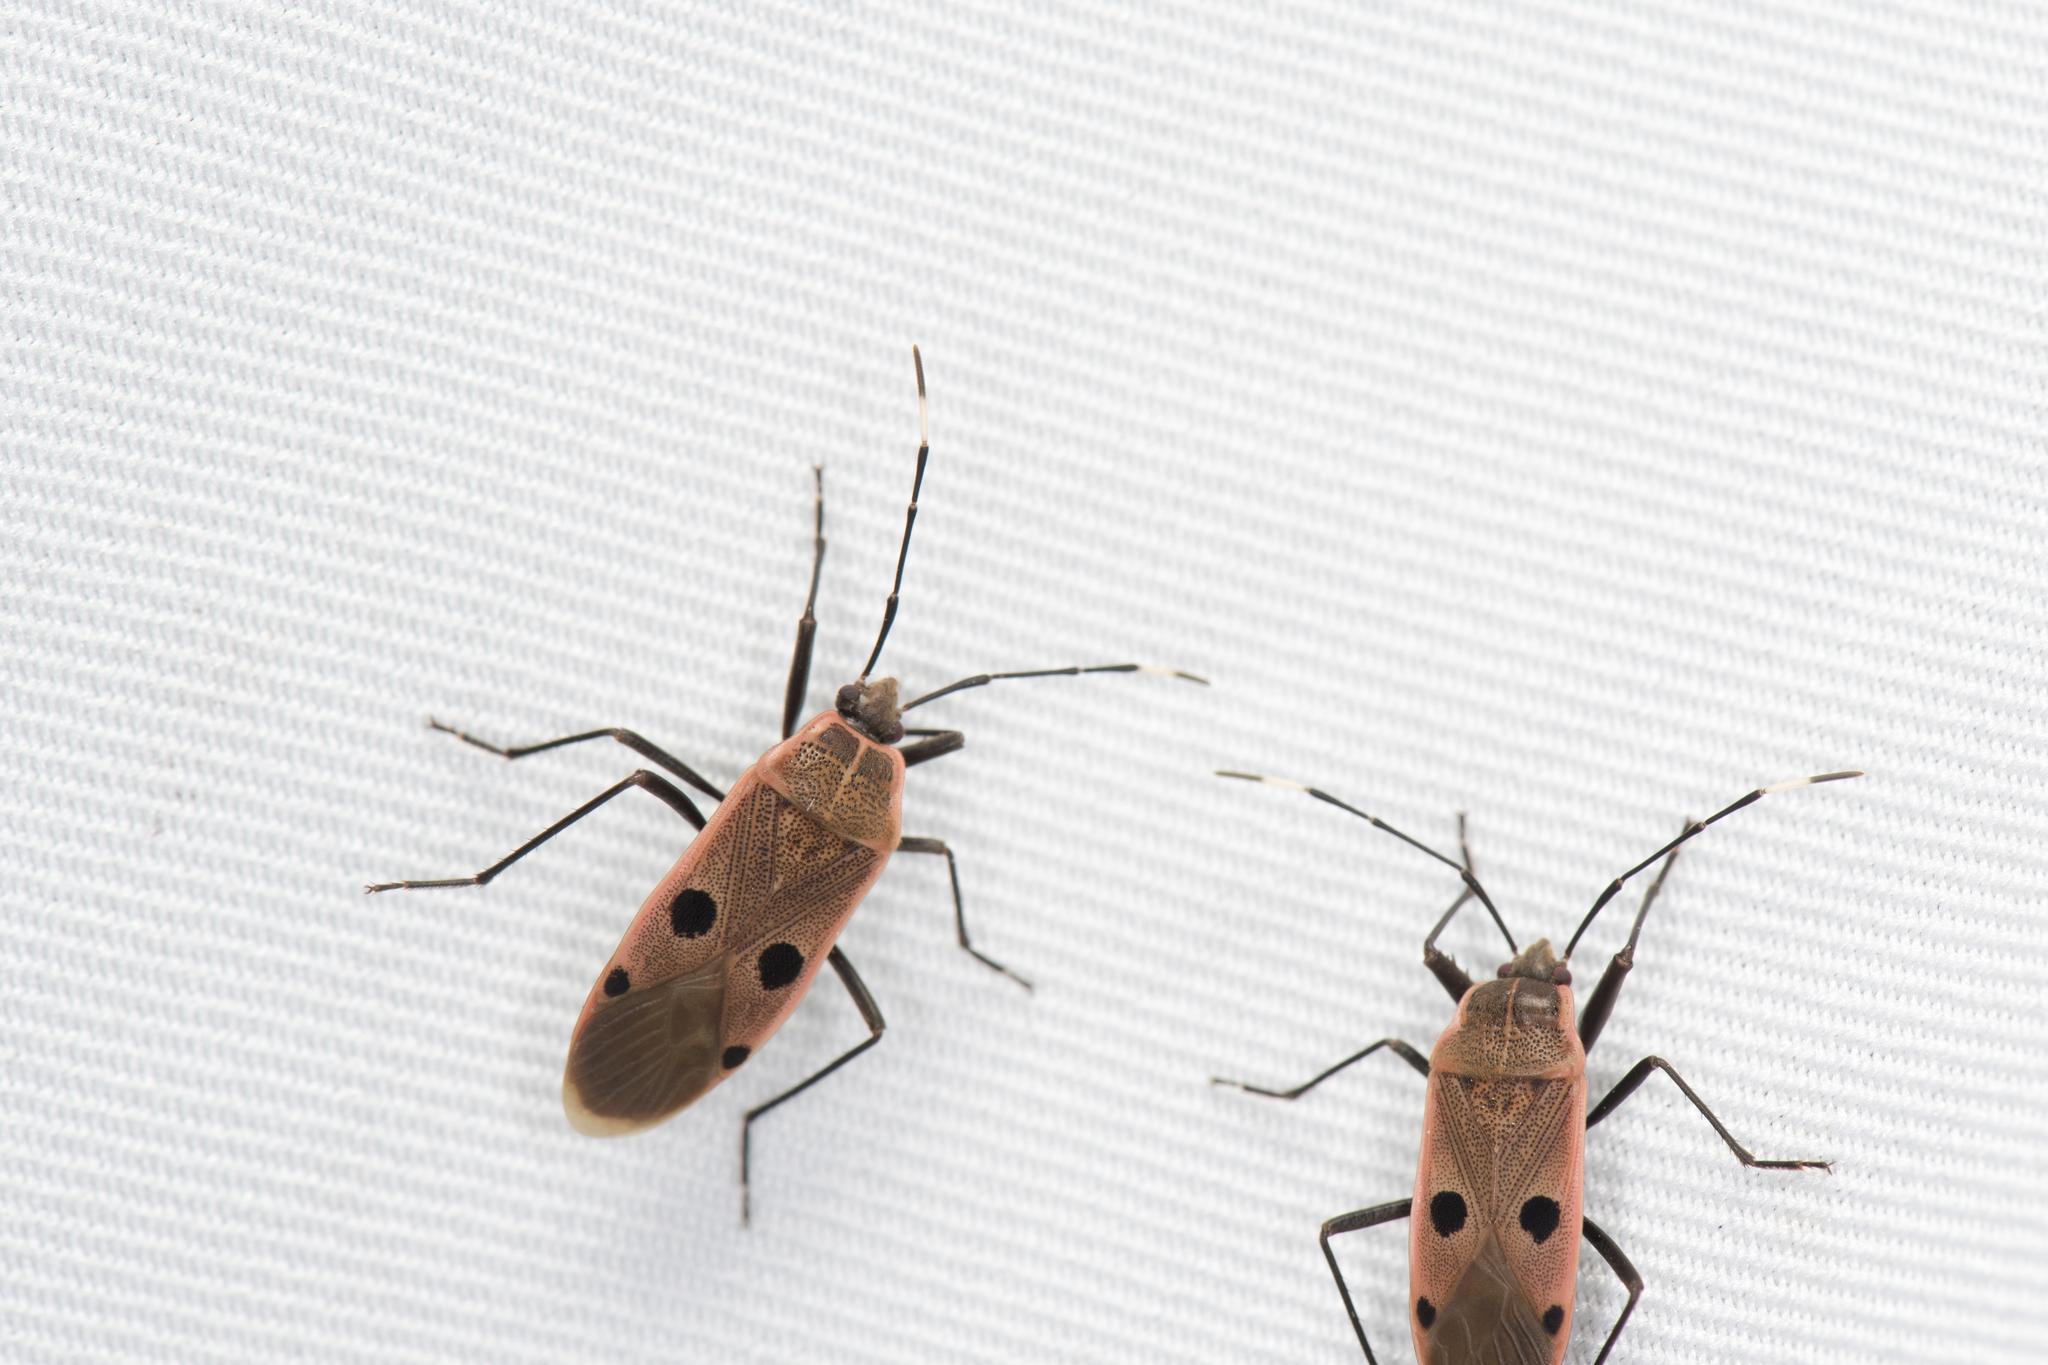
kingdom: Animalia
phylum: Arthropoda
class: Insecta
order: Hemiptera
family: Largidae
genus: Physopelta
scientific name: Physopelta quadriguttata
